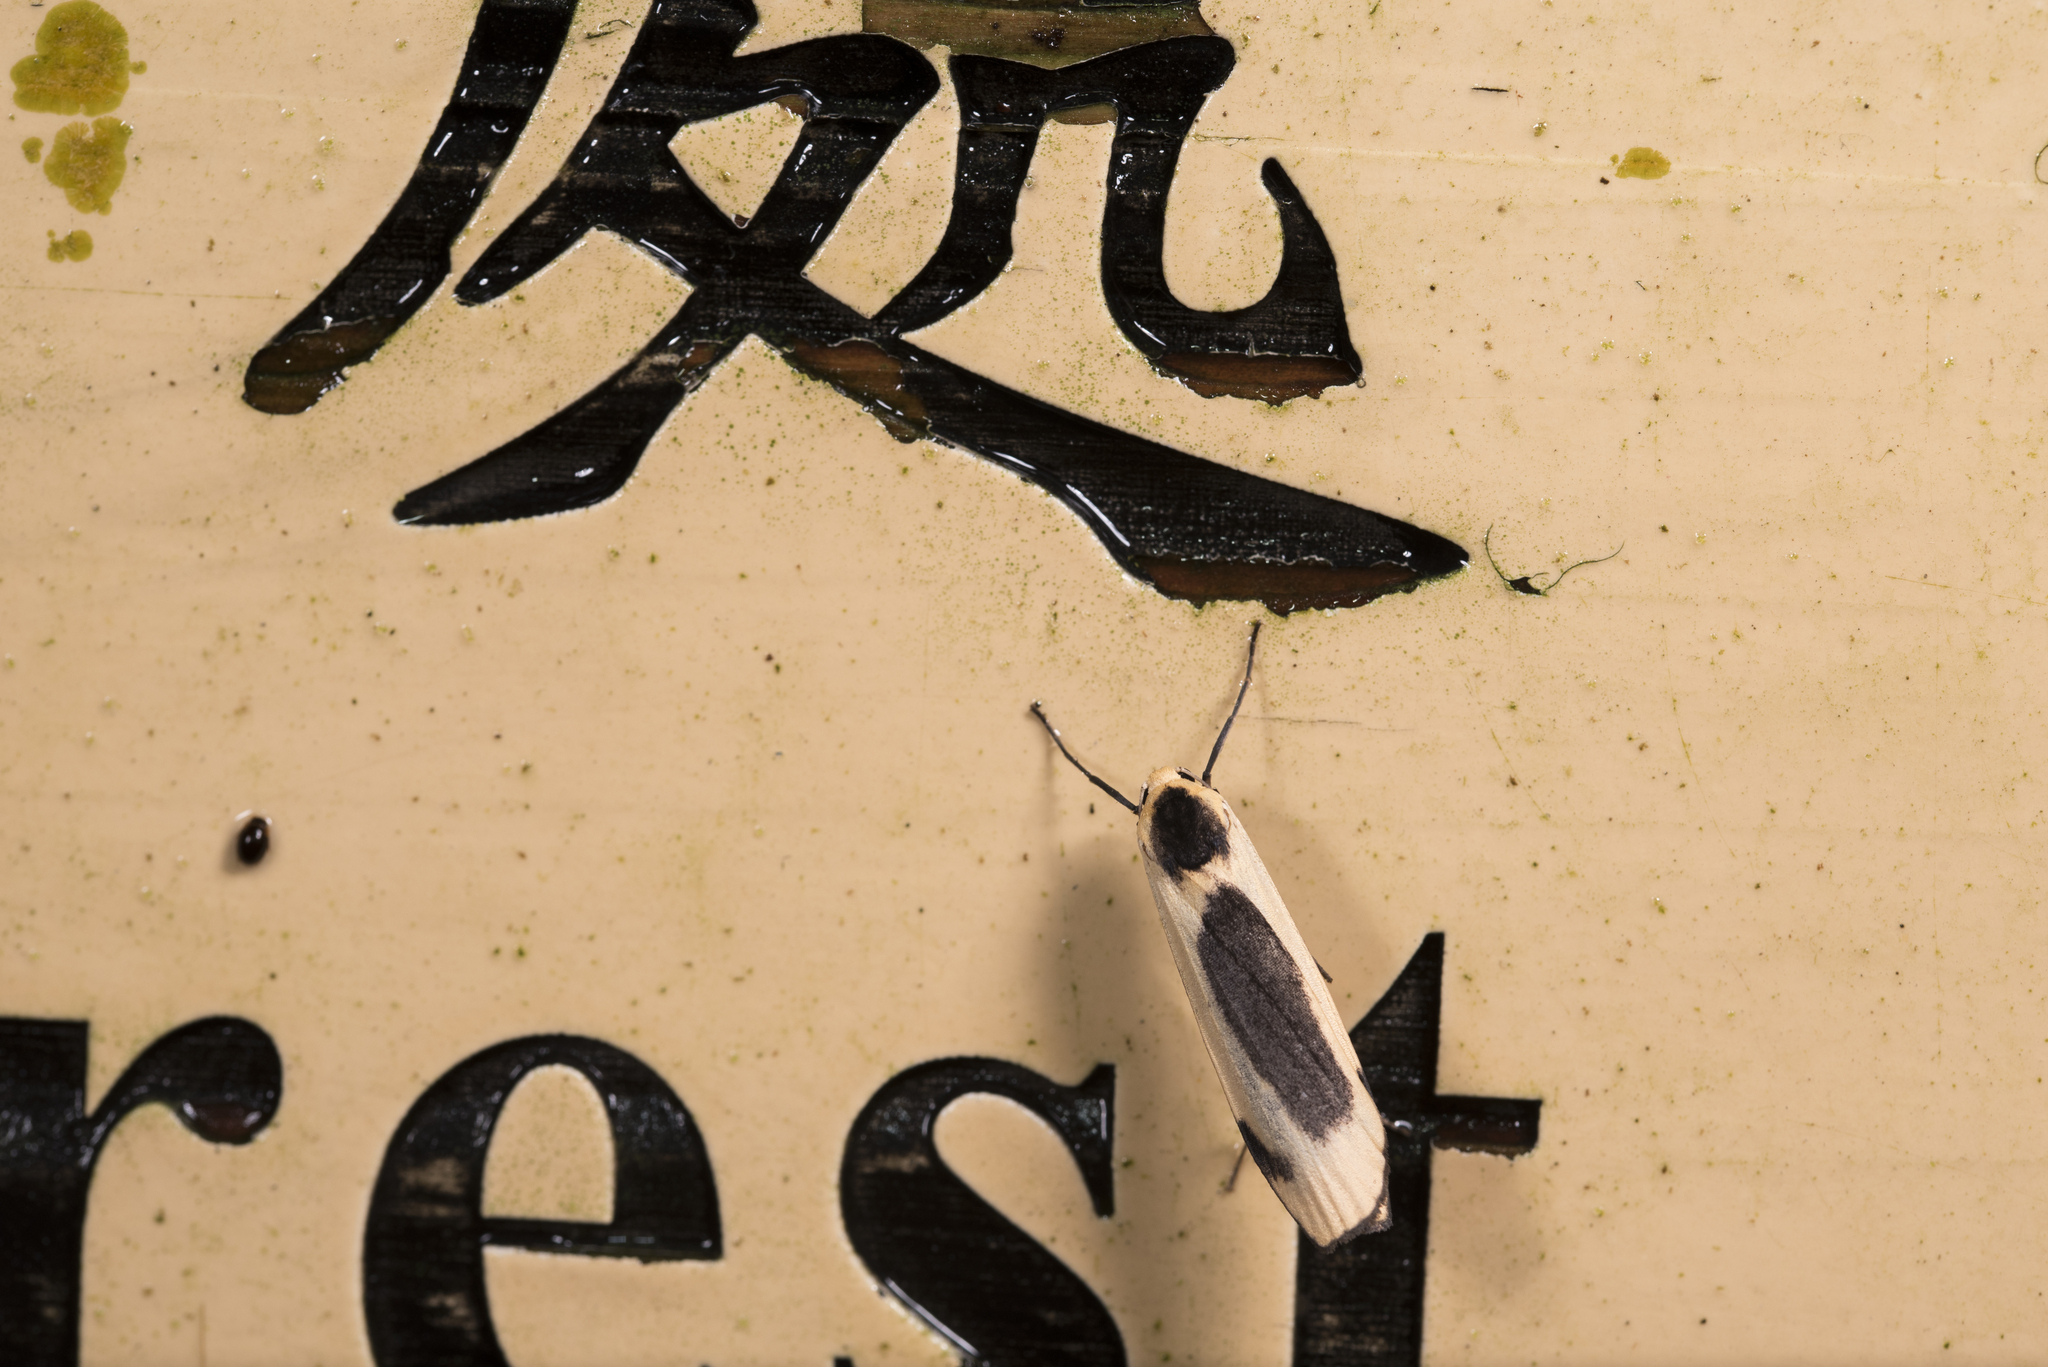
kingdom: Animalia
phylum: Arthropoda
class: Insecta
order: Lepidoptera
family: Erebidae
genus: Thysanoptyx
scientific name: Thysanoptyx incurvata
